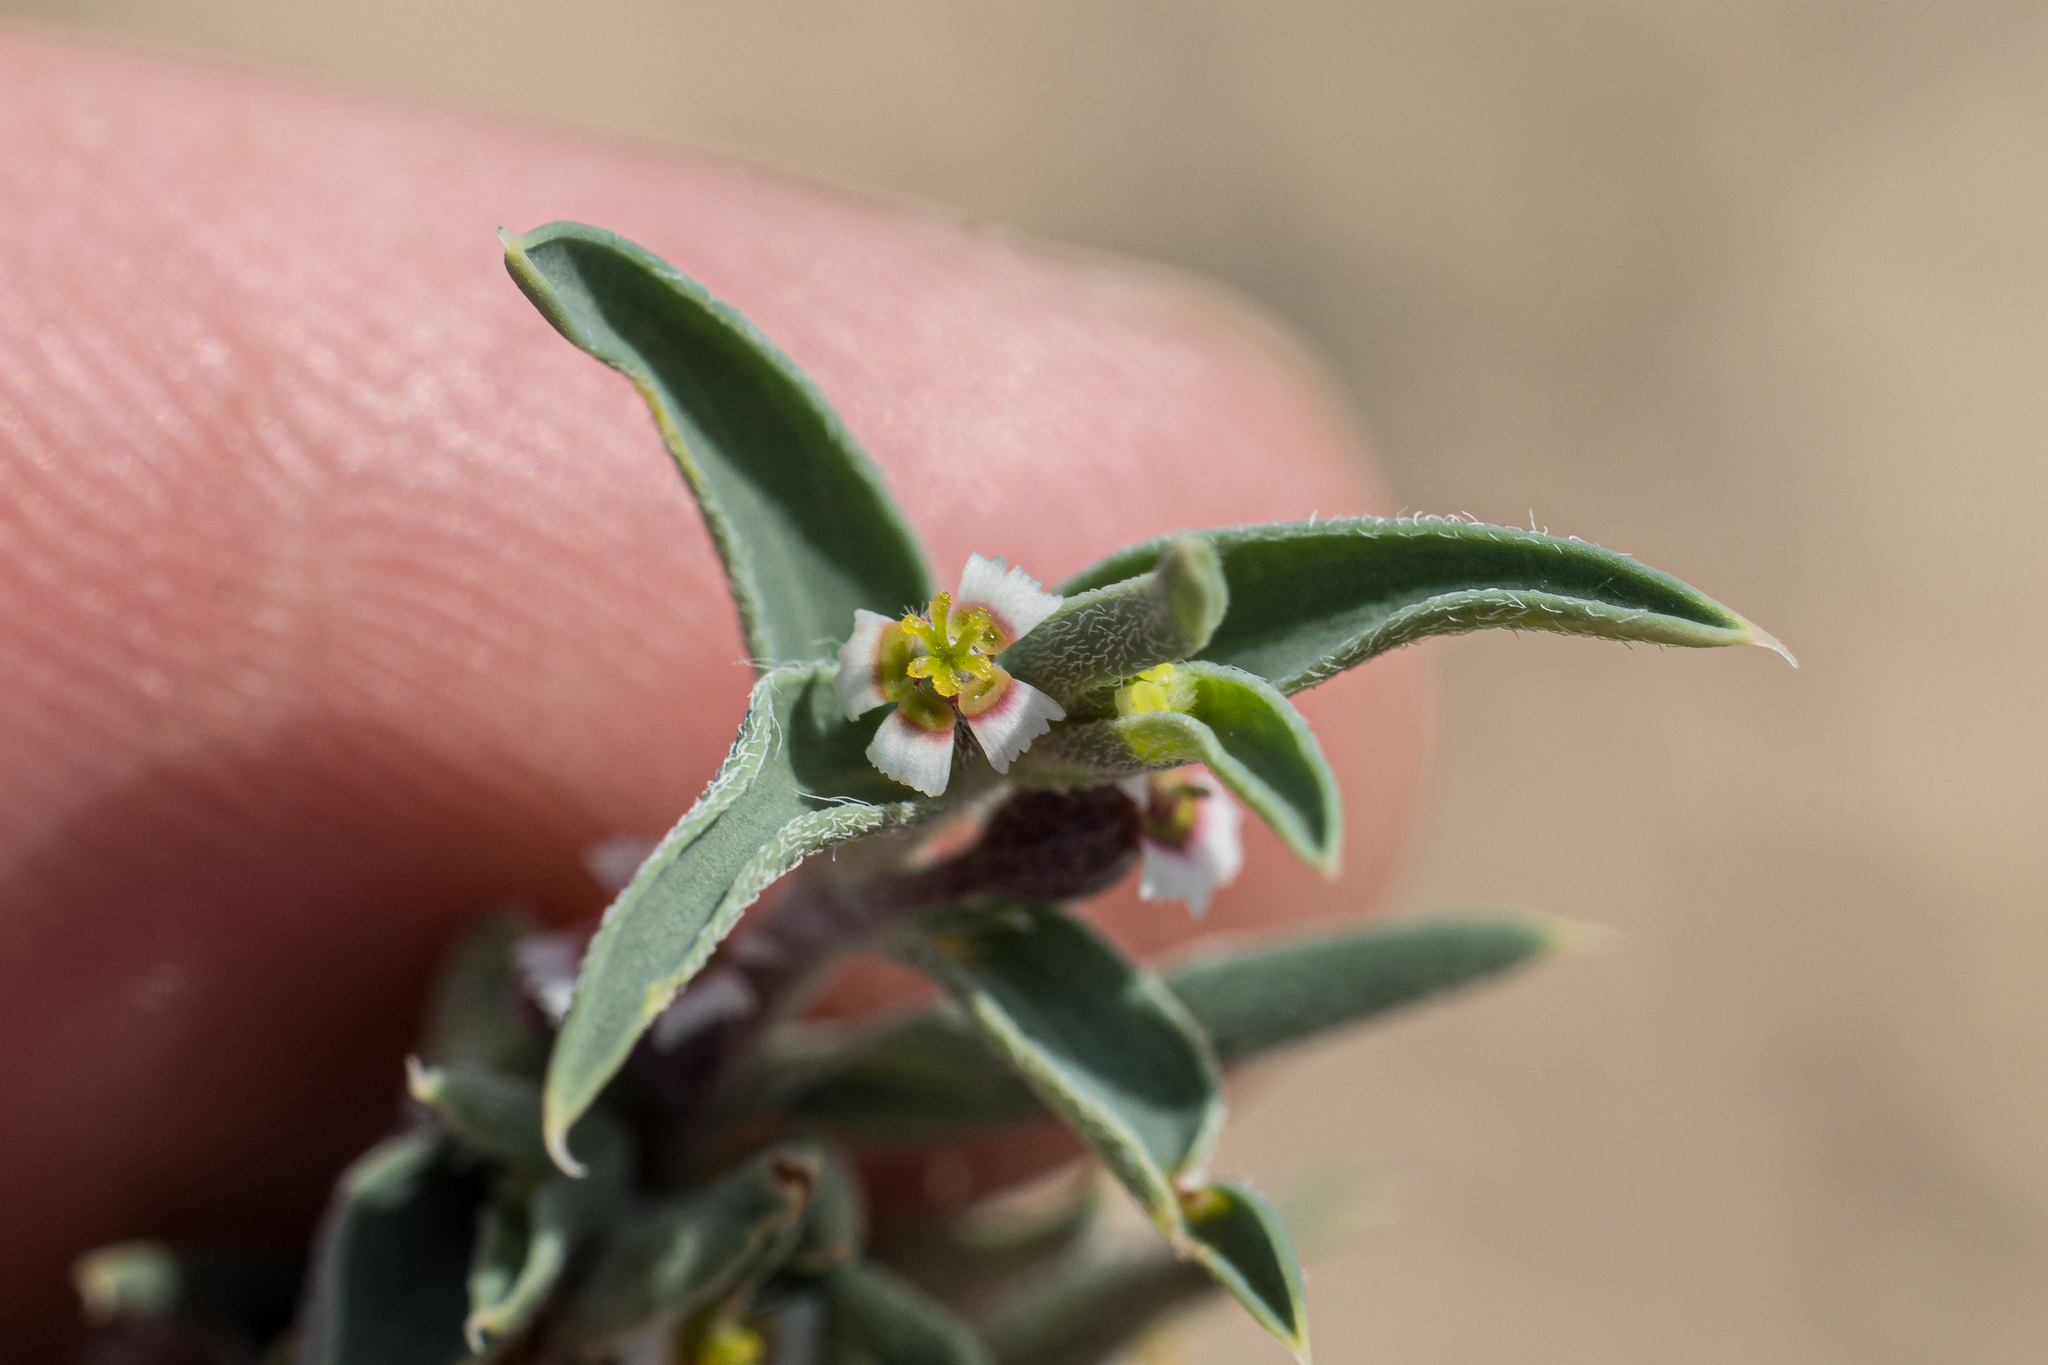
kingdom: Plantae
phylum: Tracheophyta
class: Magnoliopsida
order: Malpighiales
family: Euphorbiaceae
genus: Euphorbia
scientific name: Euphorbia acuta
